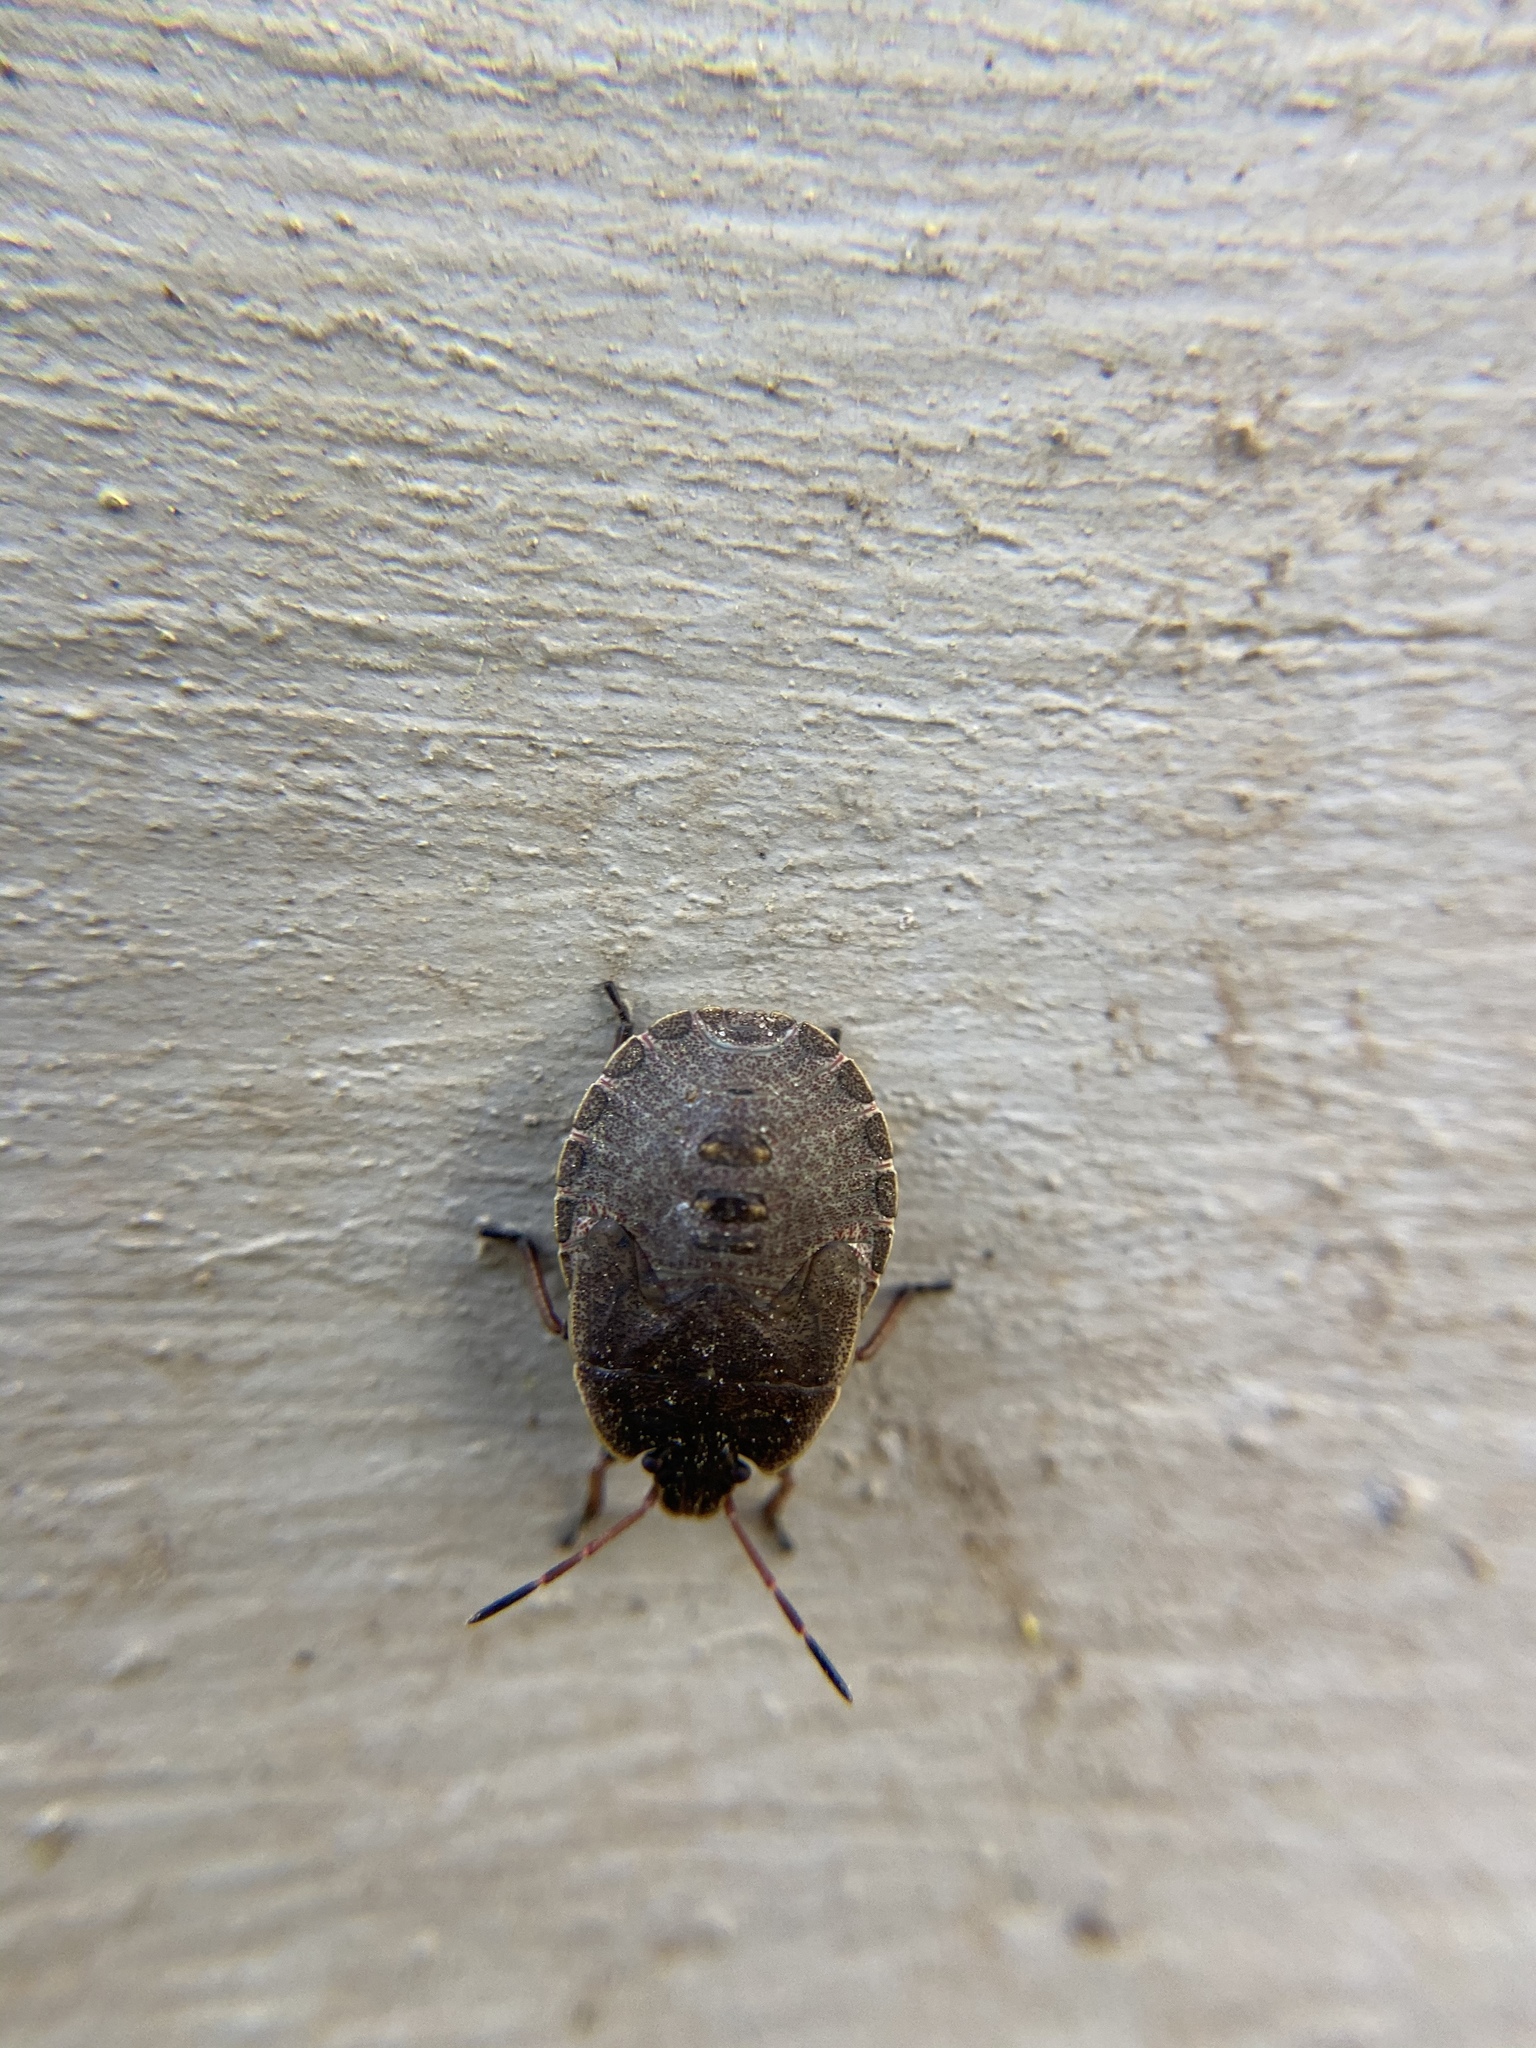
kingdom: Animalia
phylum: Arthropoda
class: Insecta
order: Hemiptera
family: Pentatomidae
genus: Menecles
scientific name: Menecles insertus
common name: Elf shoe stink bug
